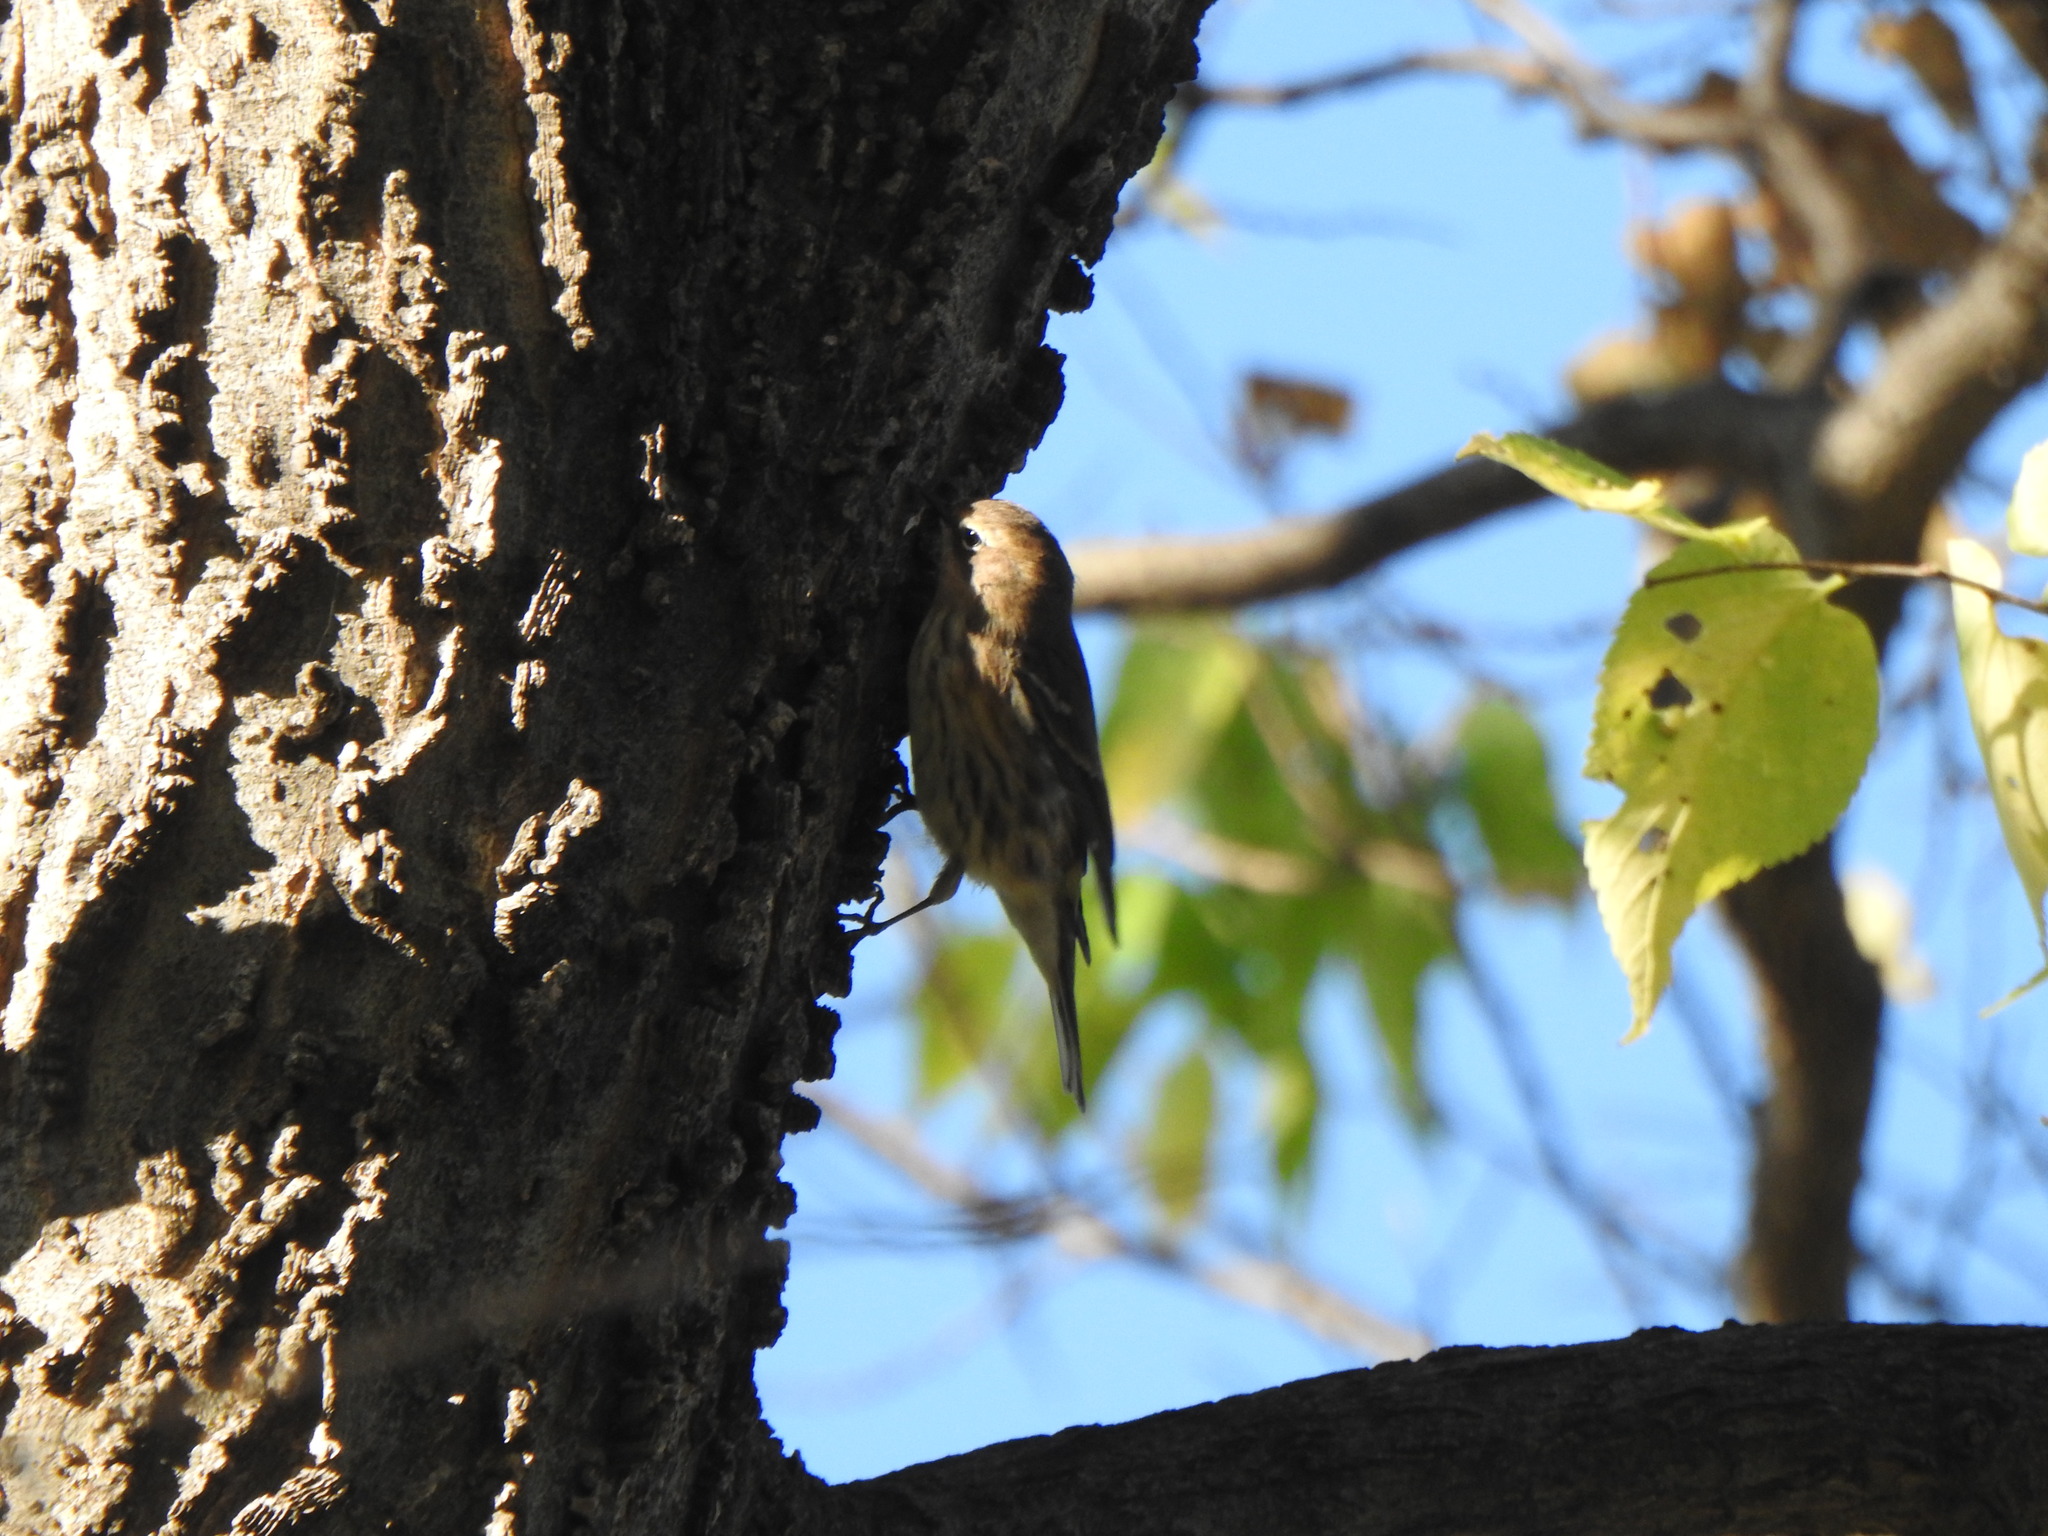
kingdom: Animalia
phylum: Chordata
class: Aves
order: Passeriformes
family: Parulidae
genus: Setophaga
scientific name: Setophaga coronata
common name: Myrtle warbler
